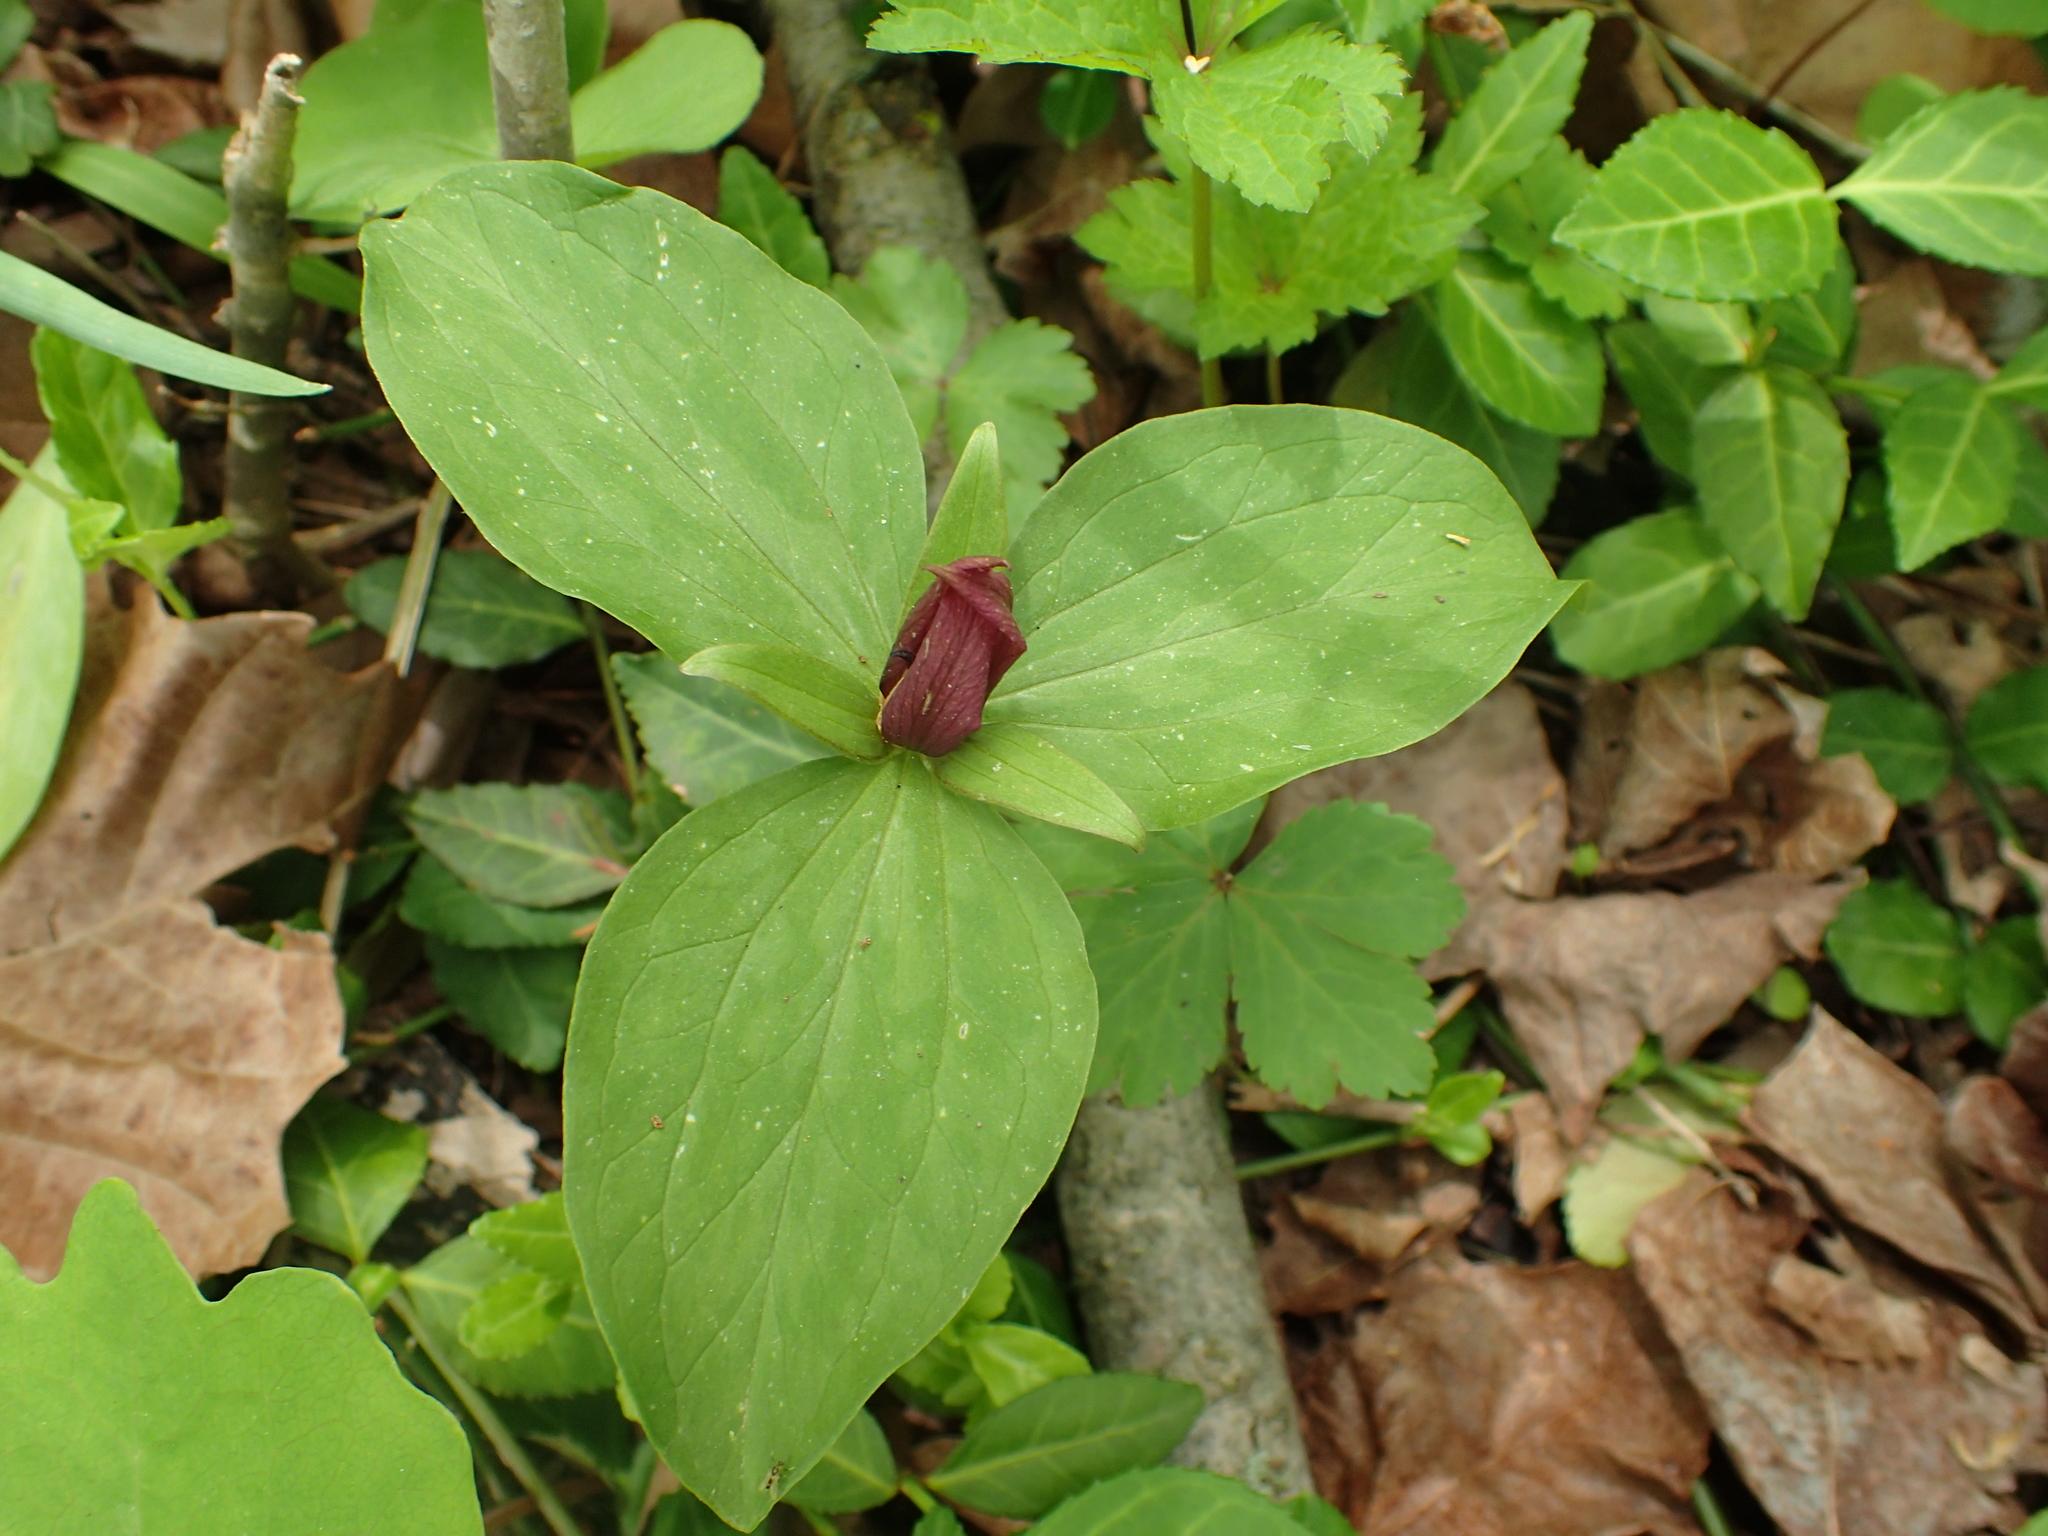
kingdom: Plantae
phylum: Tracheophyta
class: Liliopsida
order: Liliales
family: Melanthiaceae
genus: Trillium
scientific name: Trillium sessile
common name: Sessile trillium
